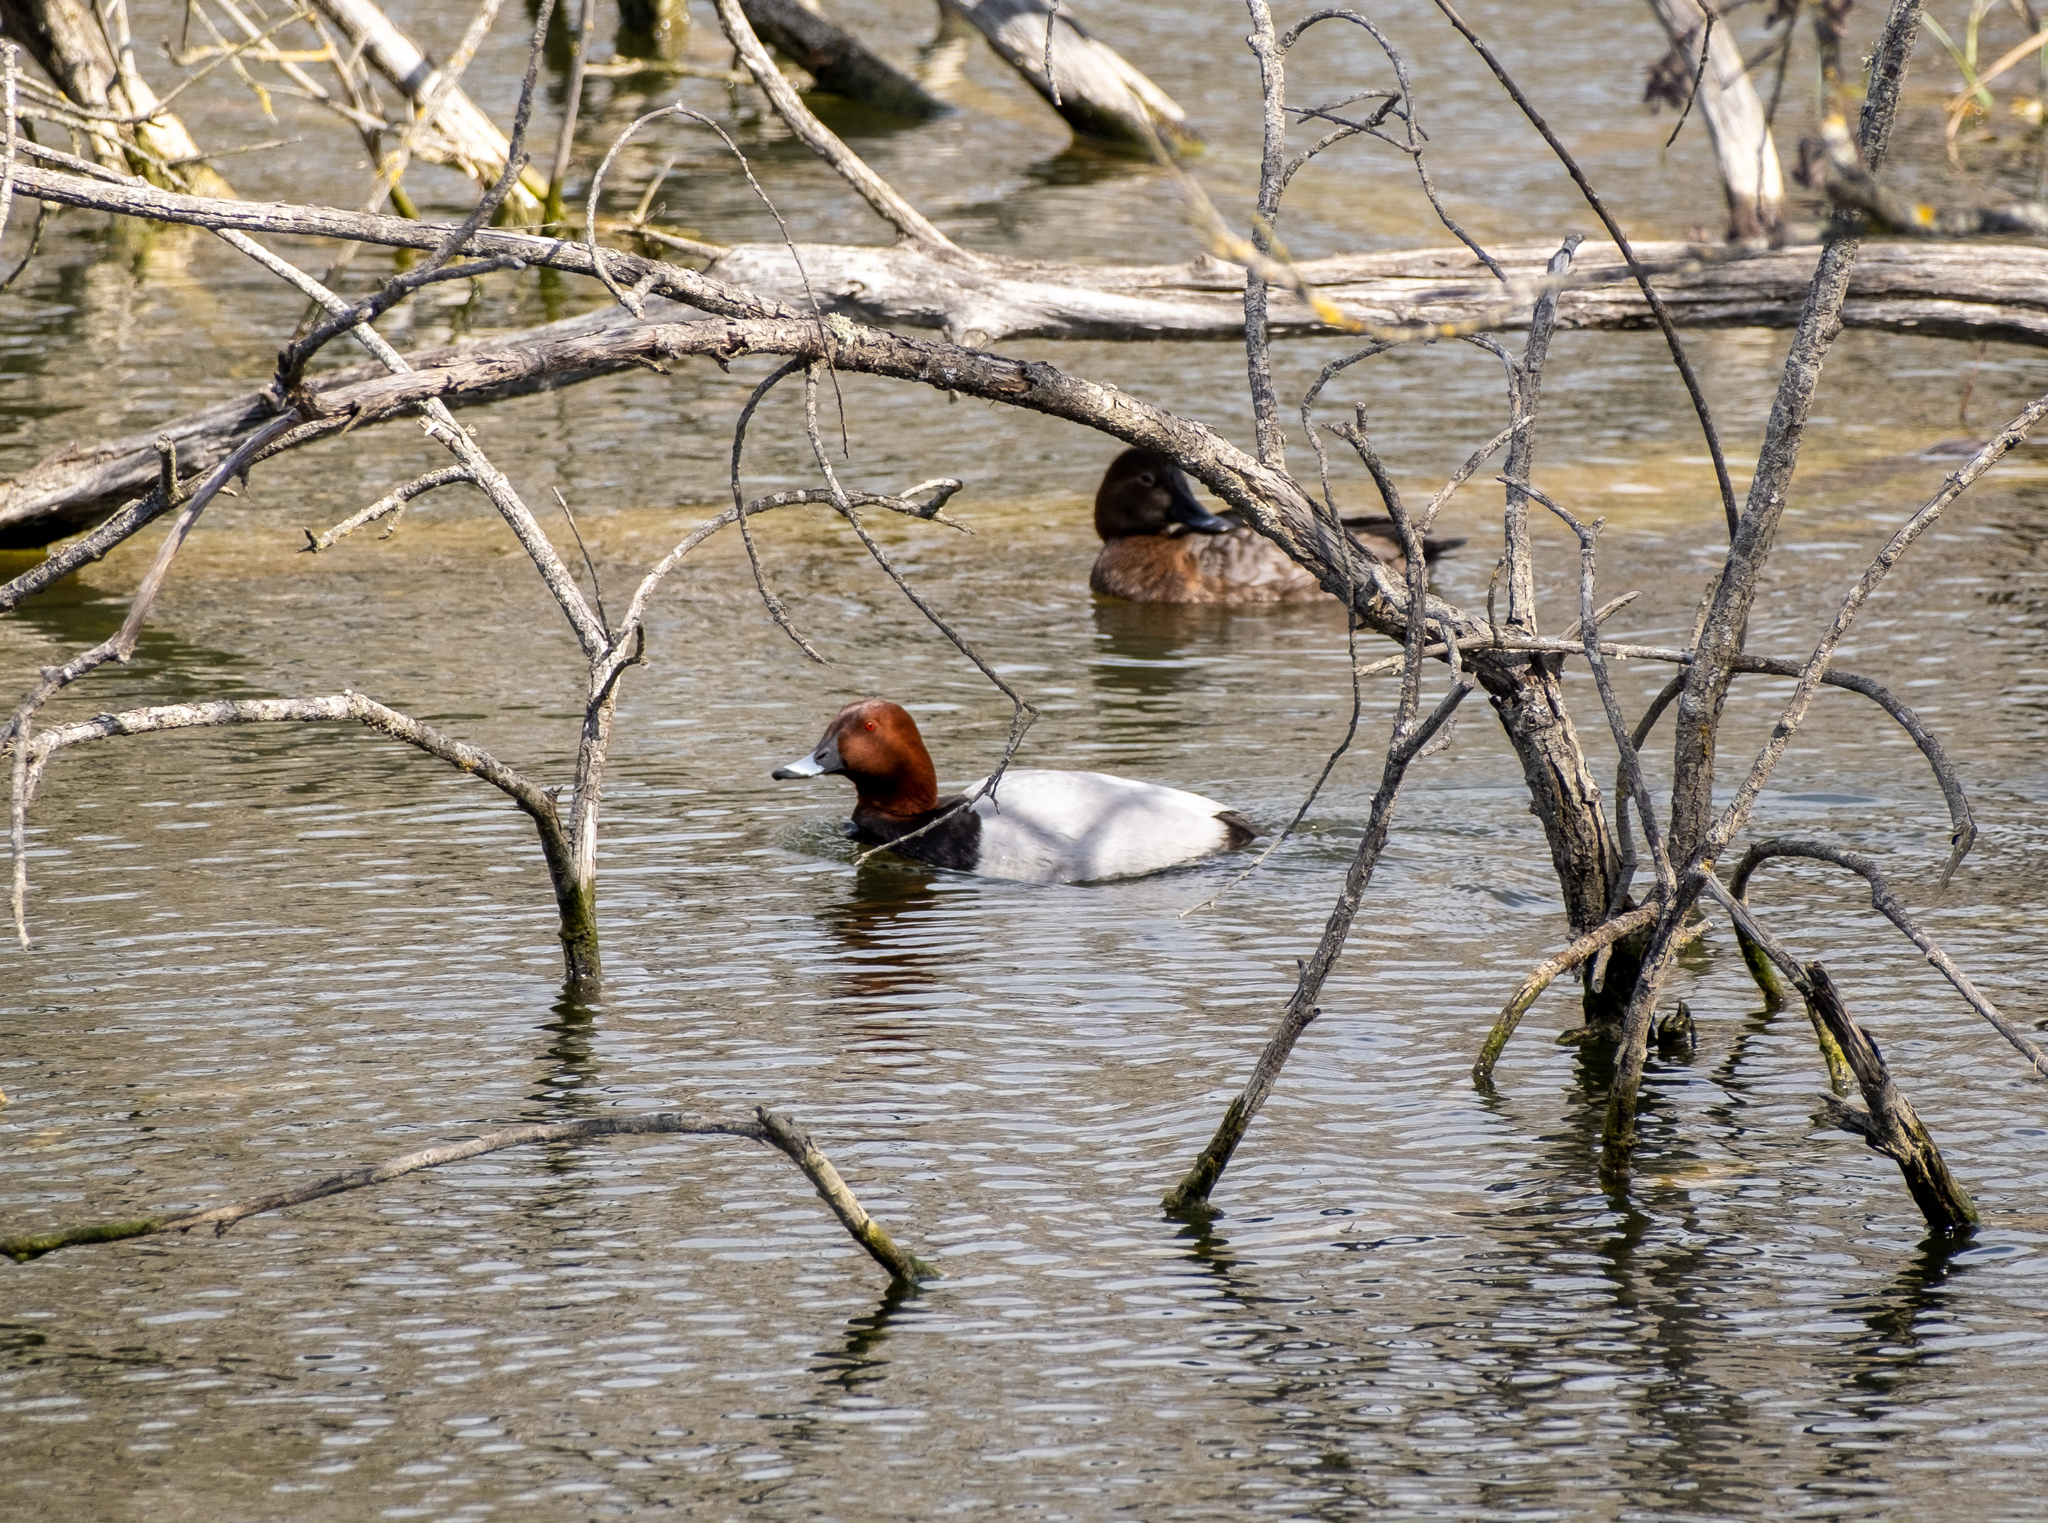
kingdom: Animalia
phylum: Chordata
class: Aves
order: Anseriformes
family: Anatidae
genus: Aythya
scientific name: Aythya ferina
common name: Common pochard
